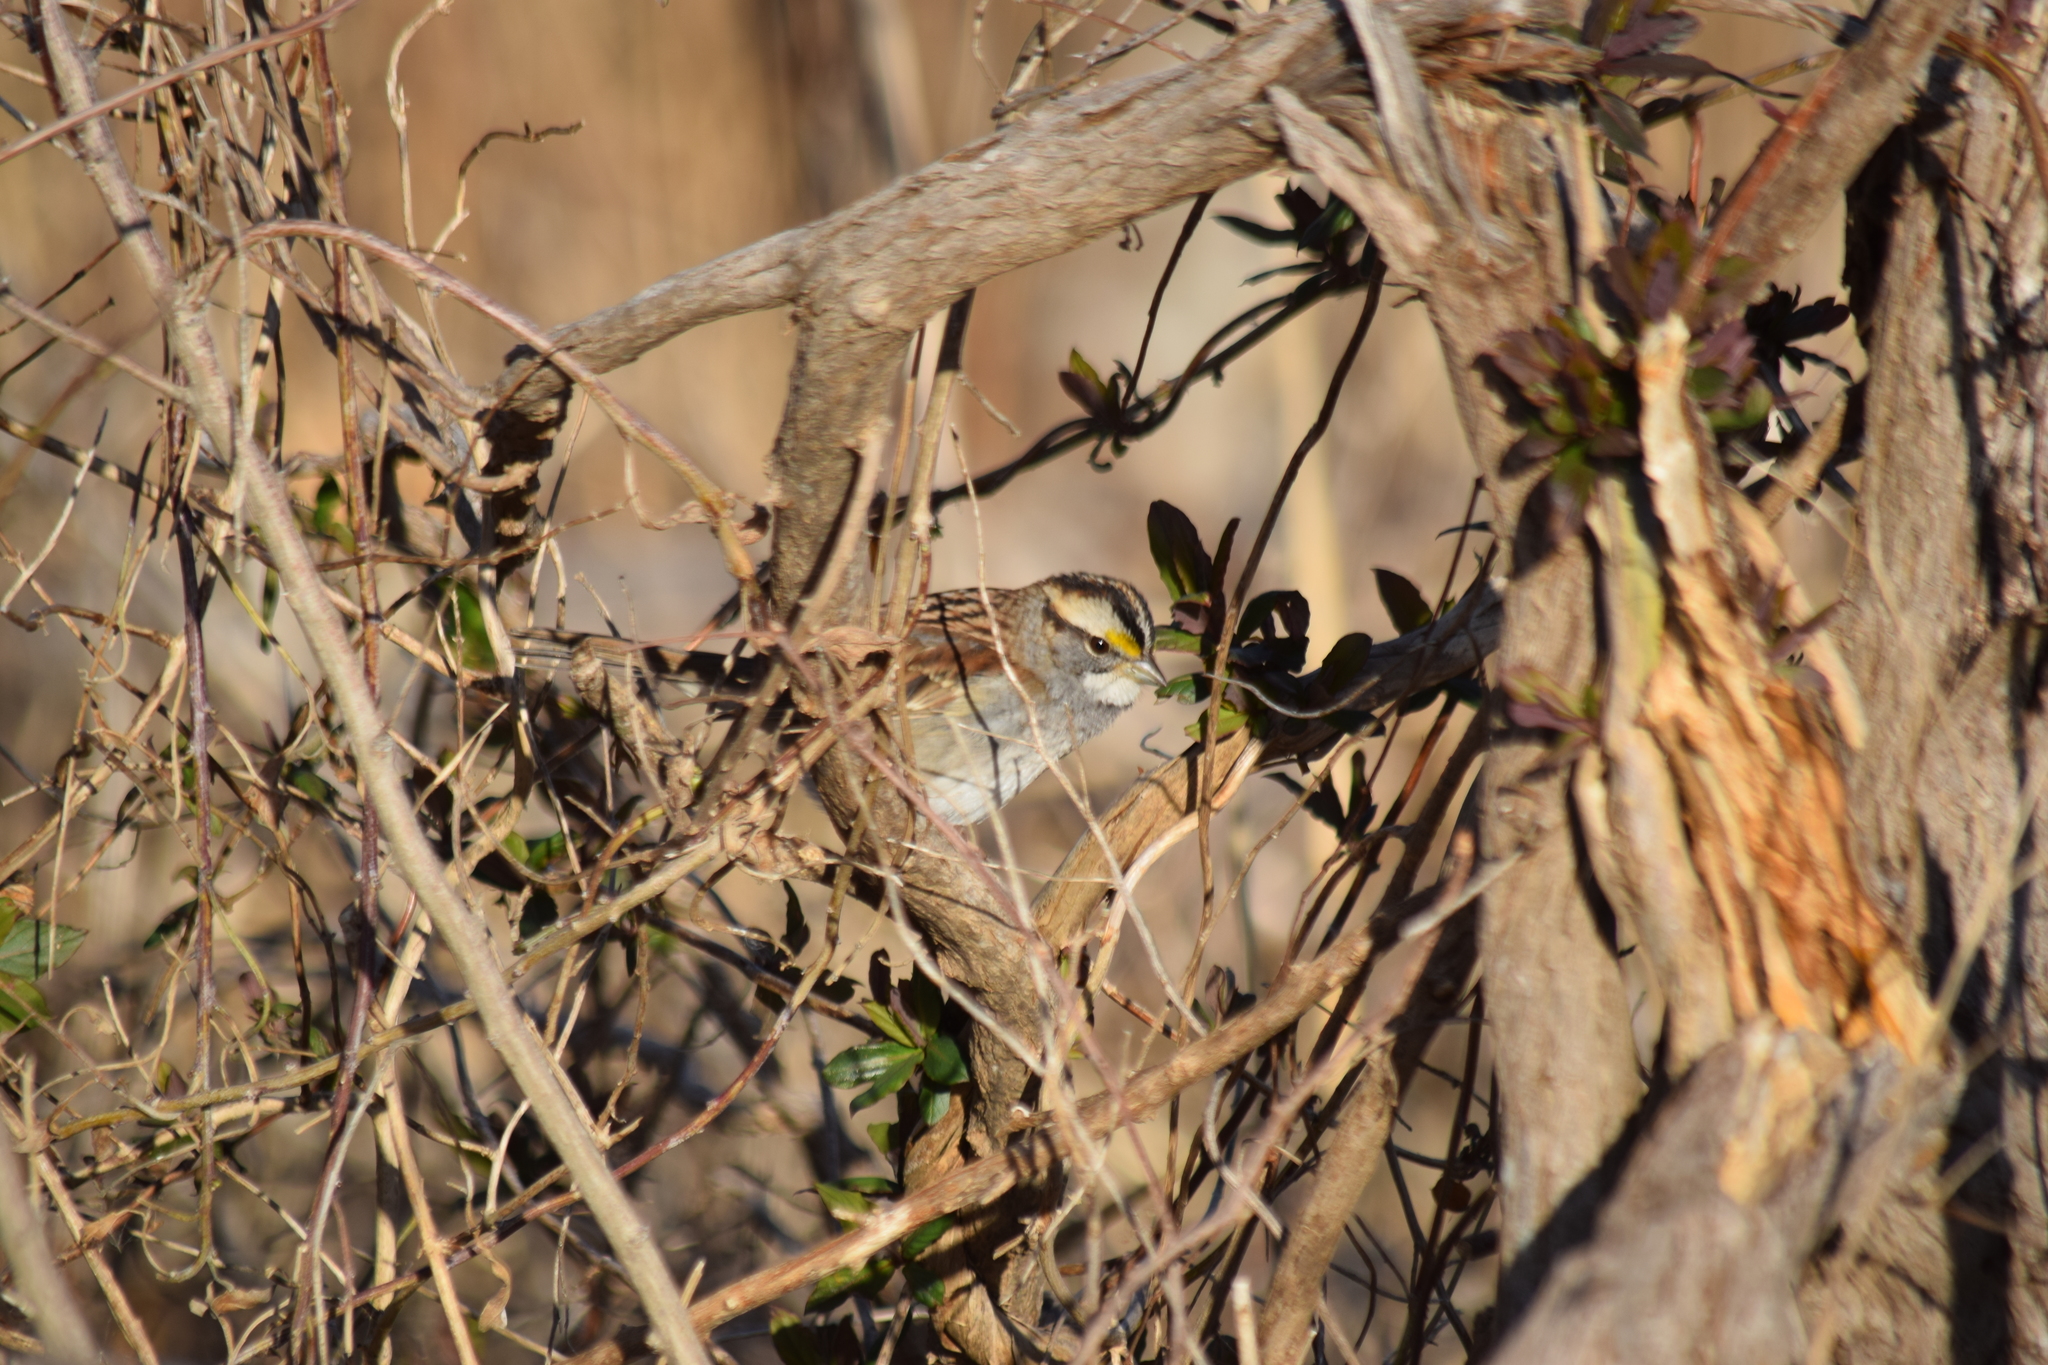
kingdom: Animalia
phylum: Chordata
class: Aves
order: Passeriformes
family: Passerellidae
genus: Zonotrichia
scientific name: Zonotrichia albicollis
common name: White-throated sparrow
